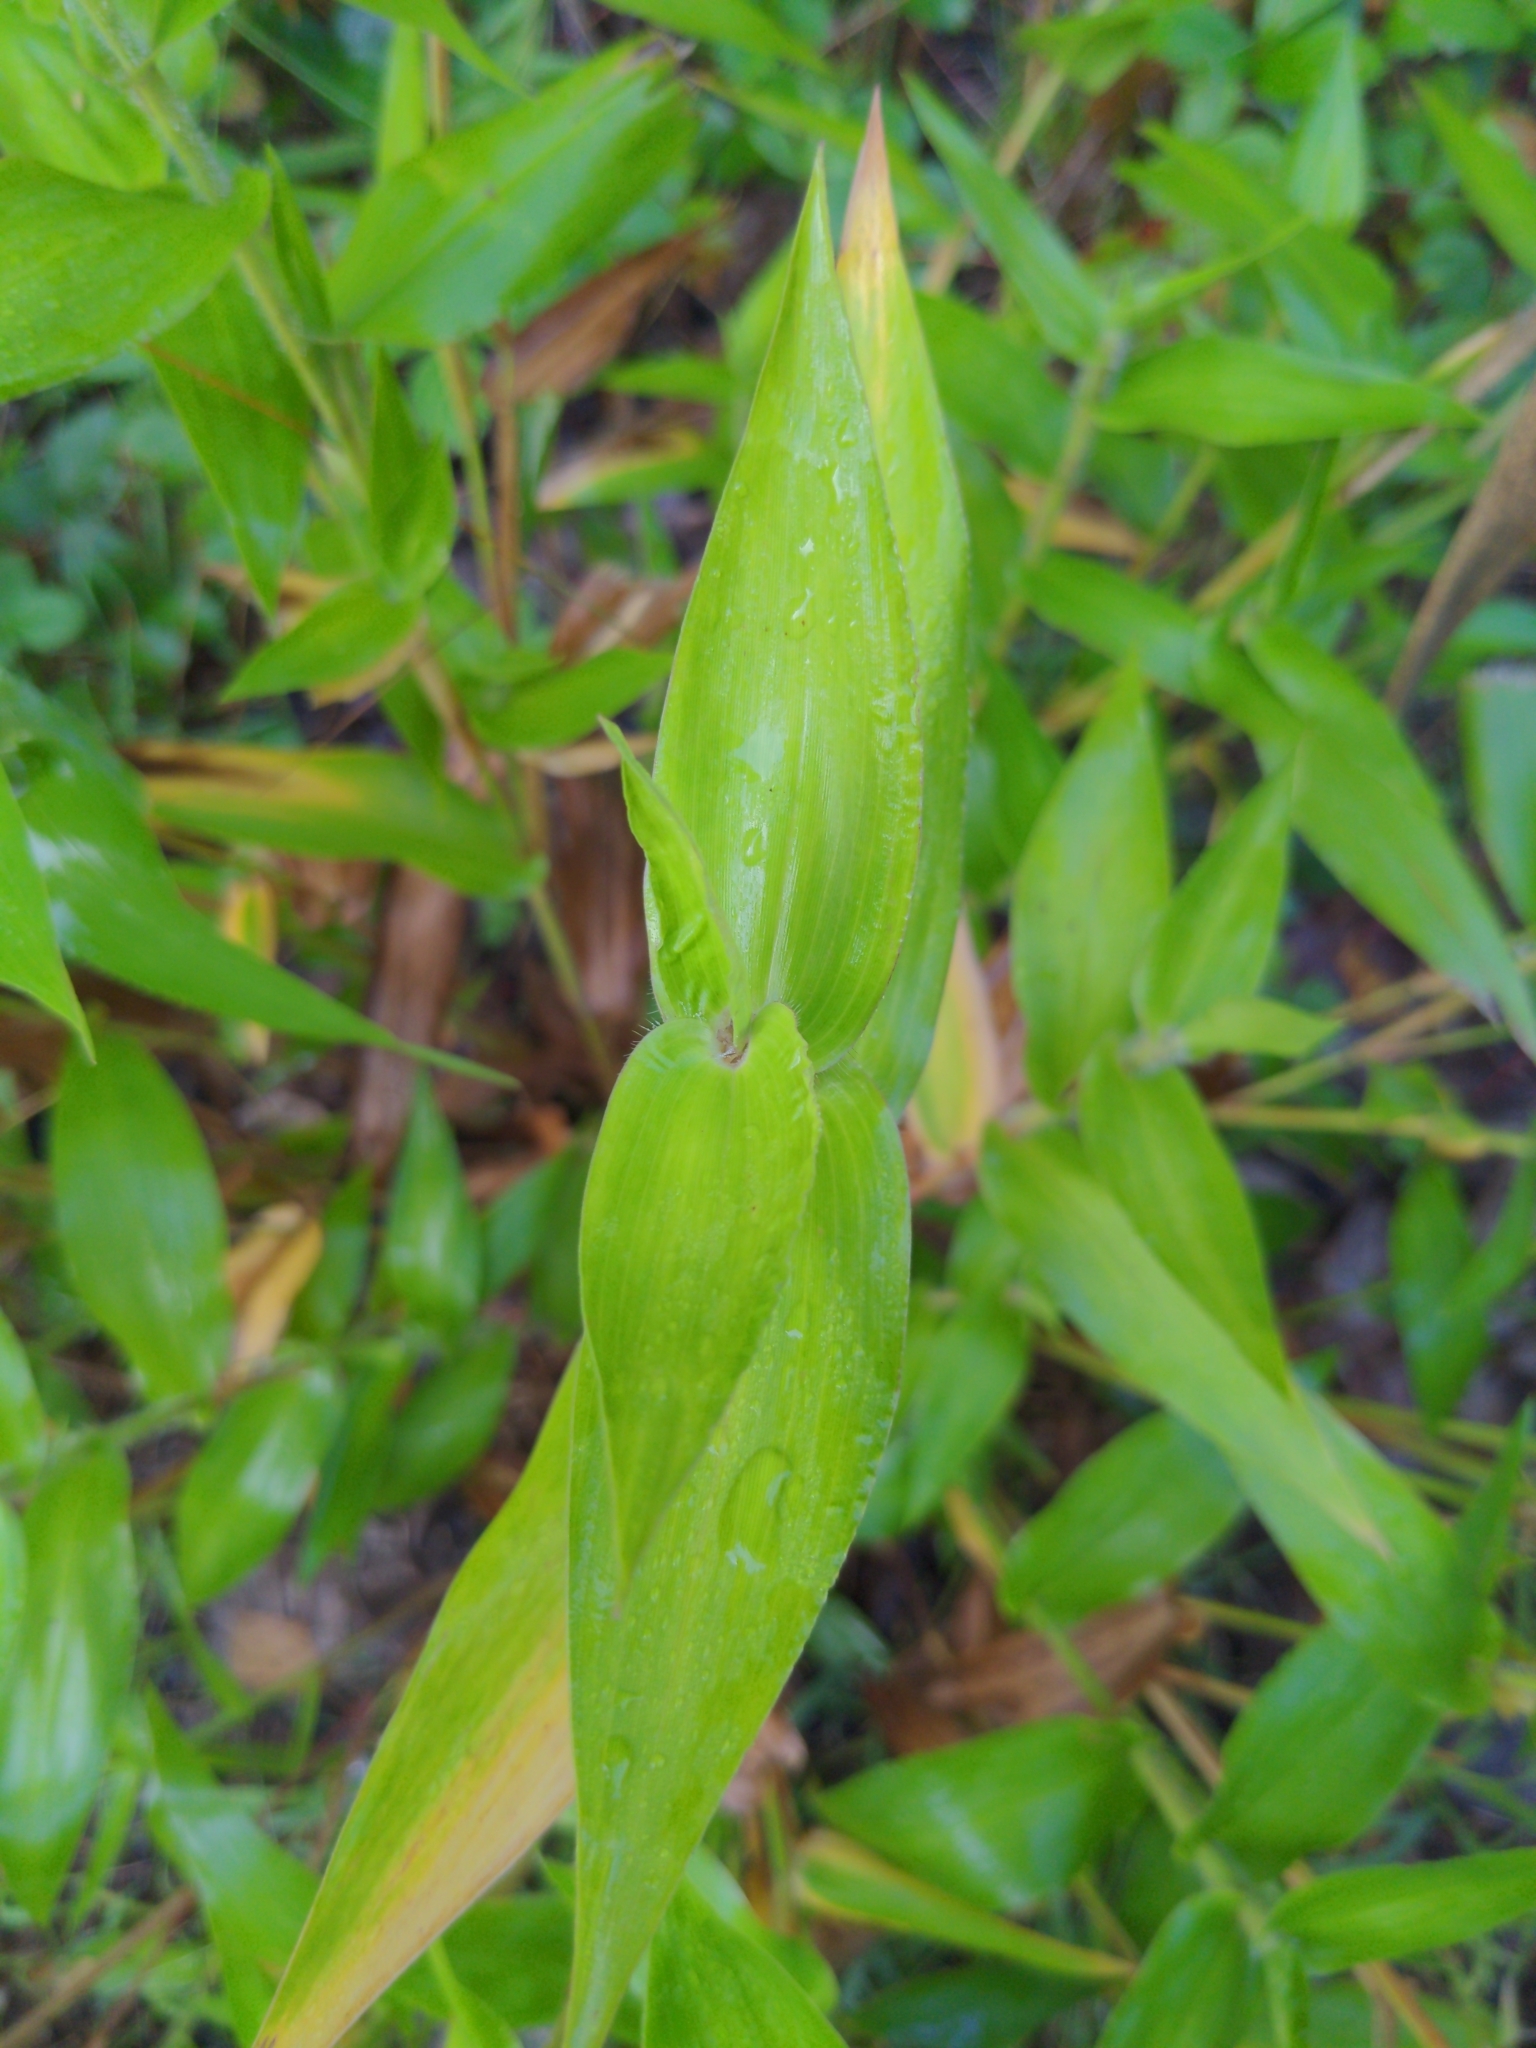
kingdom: Plantae
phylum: Tracheophyta
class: Liliopsida
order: Poales
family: Poaceae
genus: Dichanthelium
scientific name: Dichanthelium clandestinum
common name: Deer-tongue grass
